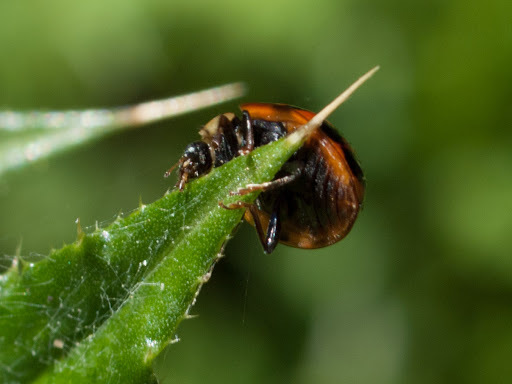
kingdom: Animalia
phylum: Arthropoda
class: Insecta
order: Coleoptera
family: Coccinellidae
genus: Harmonia
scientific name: Harmonia axyridis
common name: Harlequin ladybird
